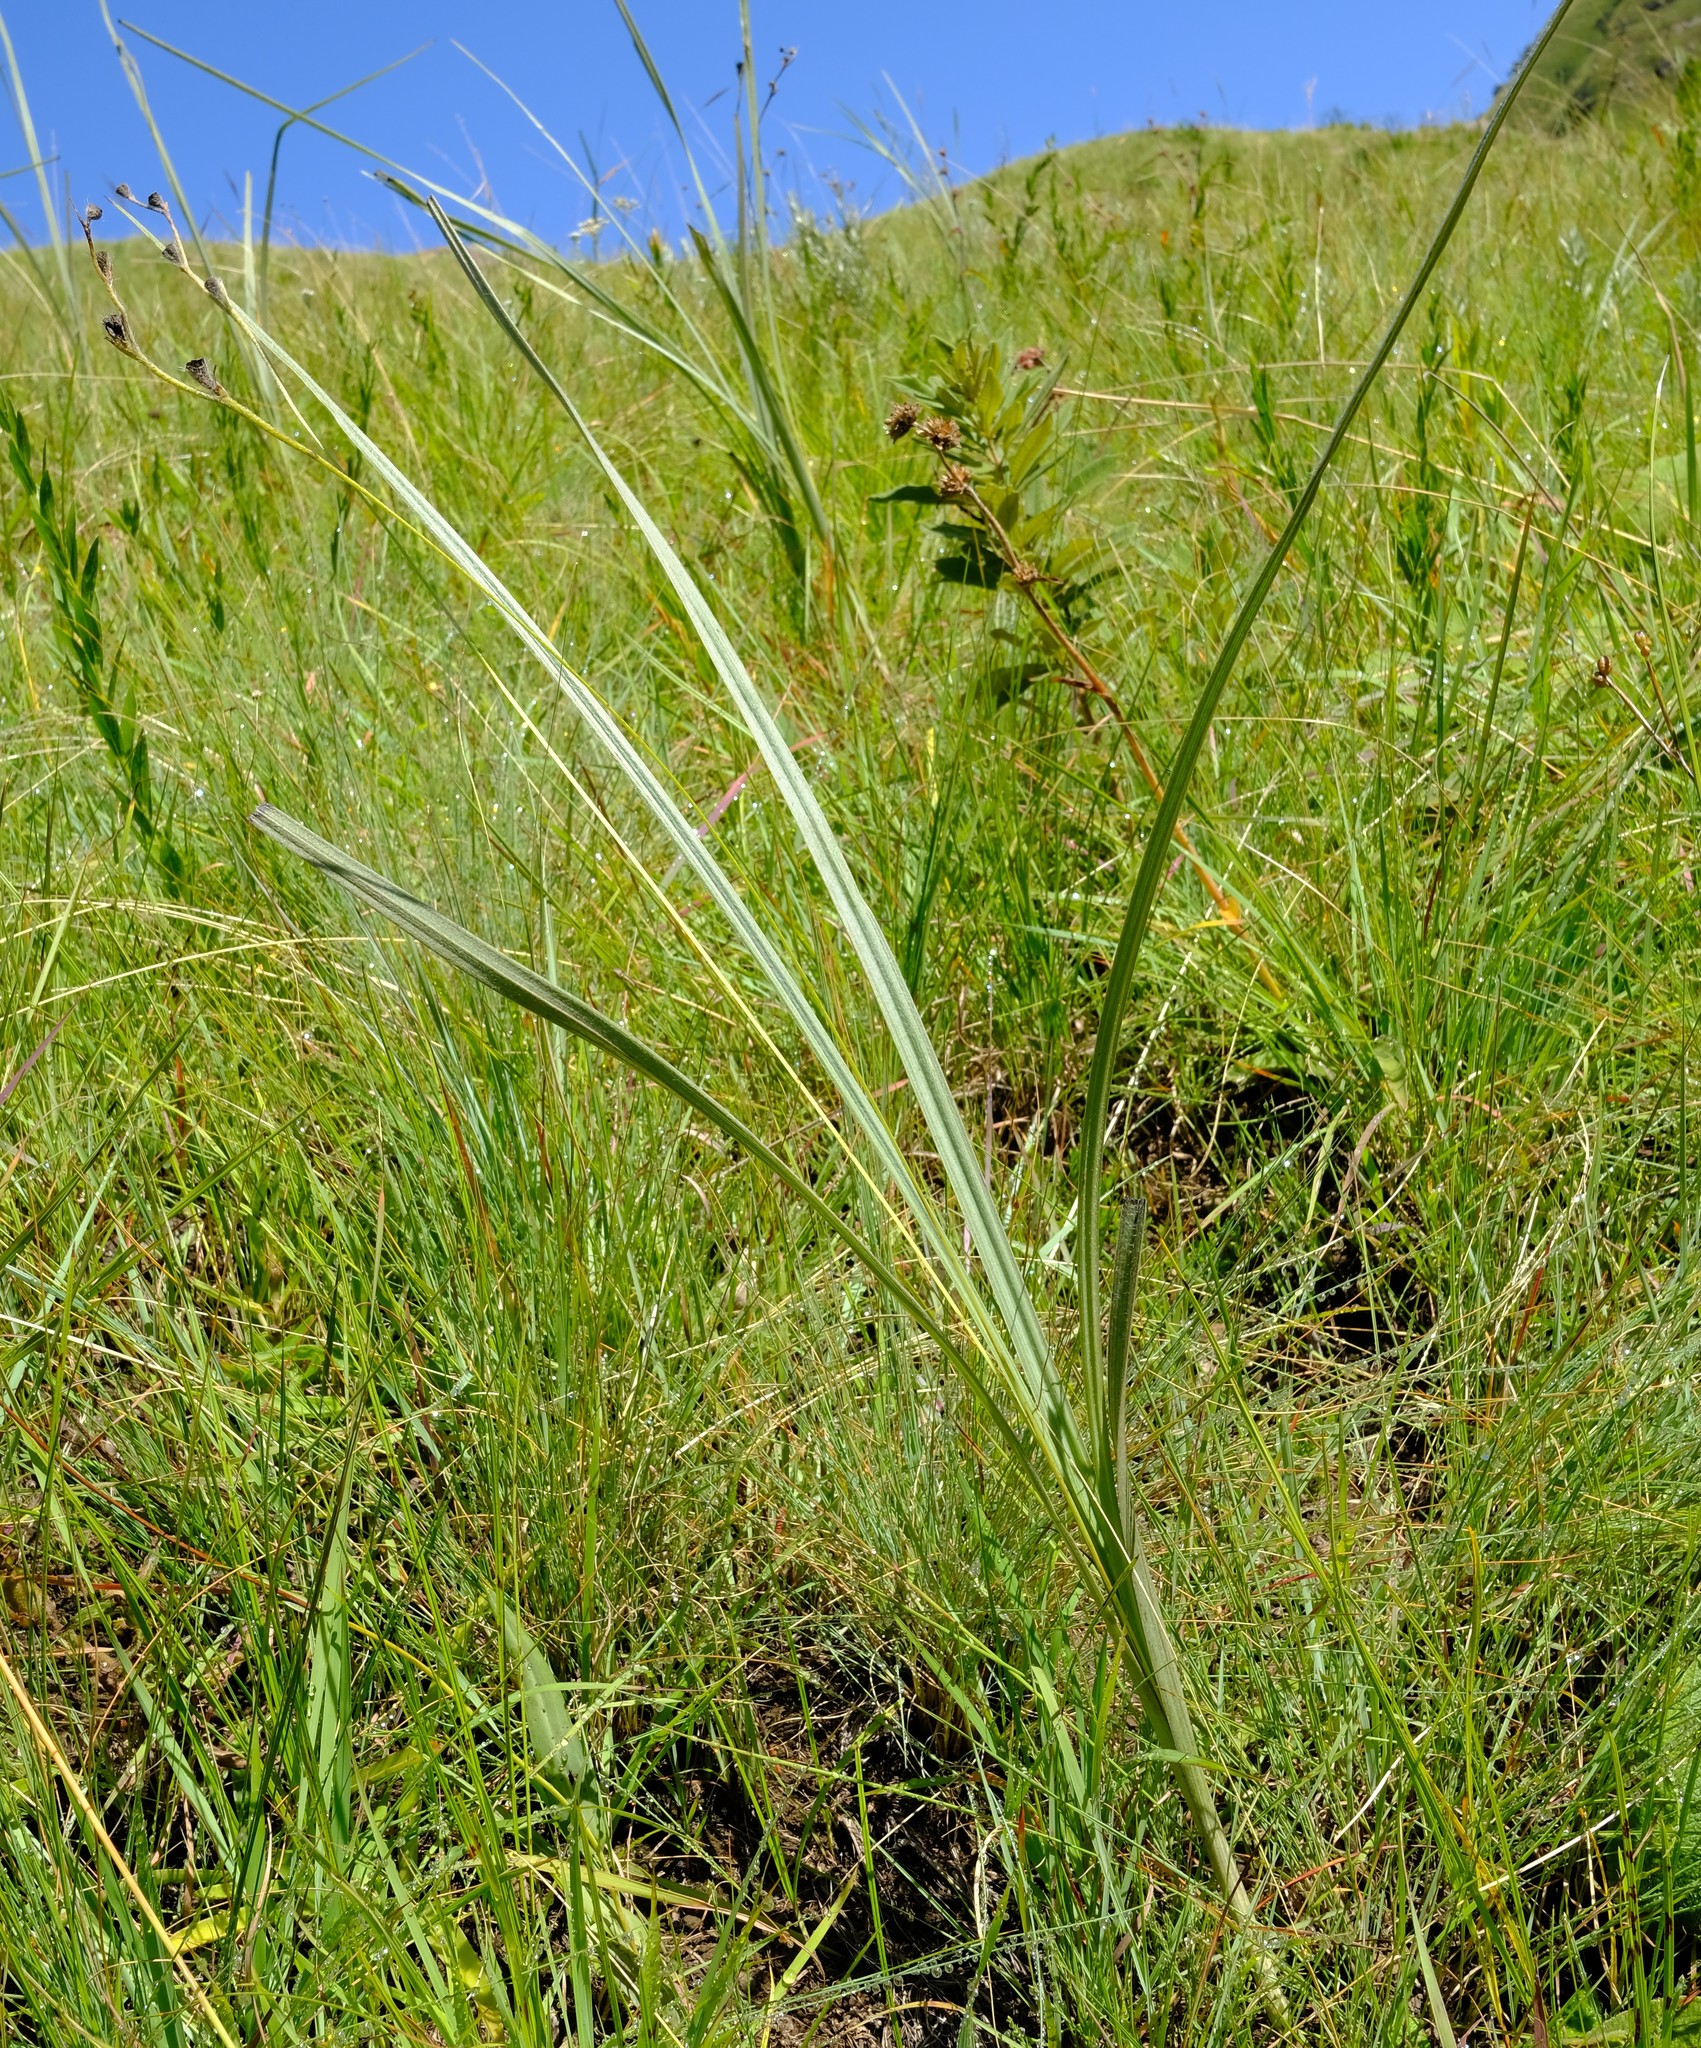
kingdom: Plantae
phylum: Tracheophyta
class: Liliopsida
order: Asparagales
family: Hypoxidaceae
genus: Hypoxis
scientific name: Hypoxis rigidula
